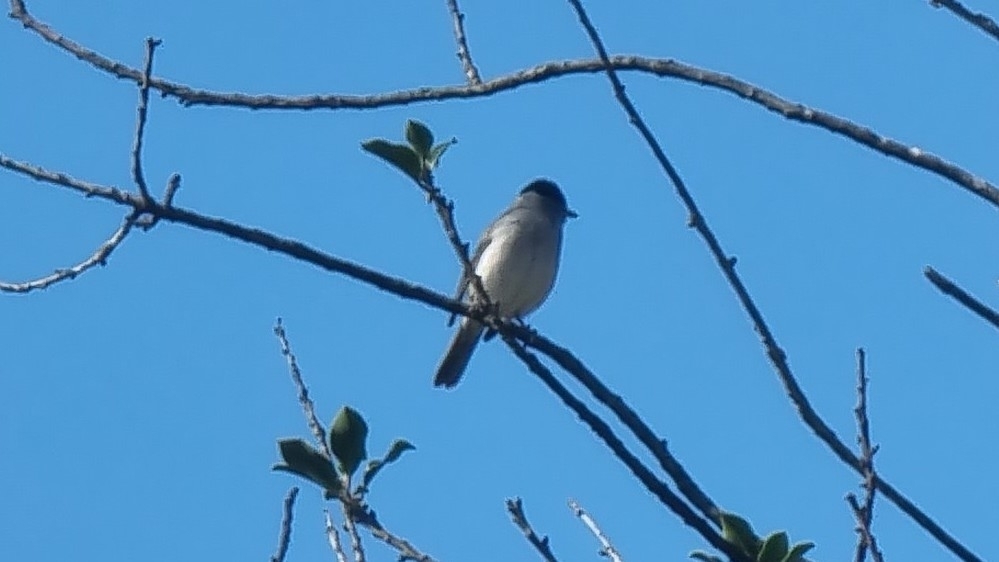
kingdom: Animalia
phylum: Chordata
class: Aves
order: Passeriformes
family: Sylviidae
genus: Sylvia
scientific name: Sylvia atricapilla
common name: Eurasian blackcap
